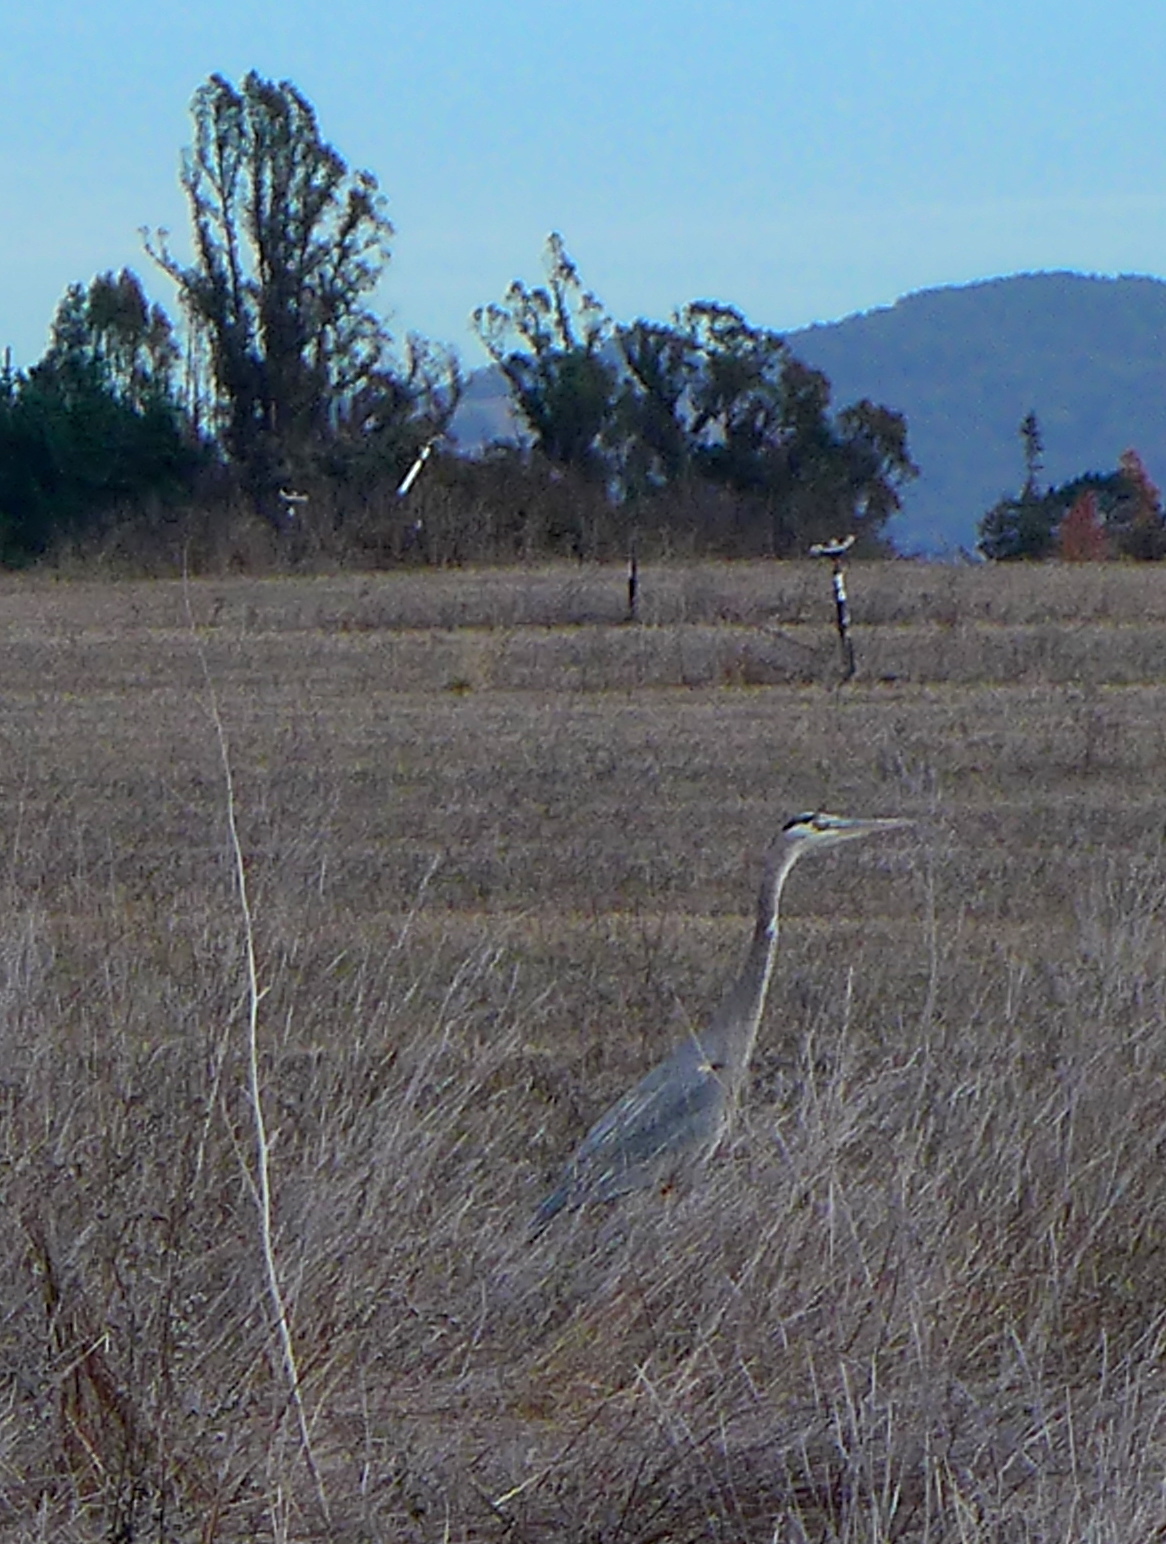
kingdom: Animalia
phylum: Chordata
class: Aves
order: Pelecaniformes
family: Ardeidae
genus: Ardea
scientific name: Ardea herodias
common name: Great blue heron
